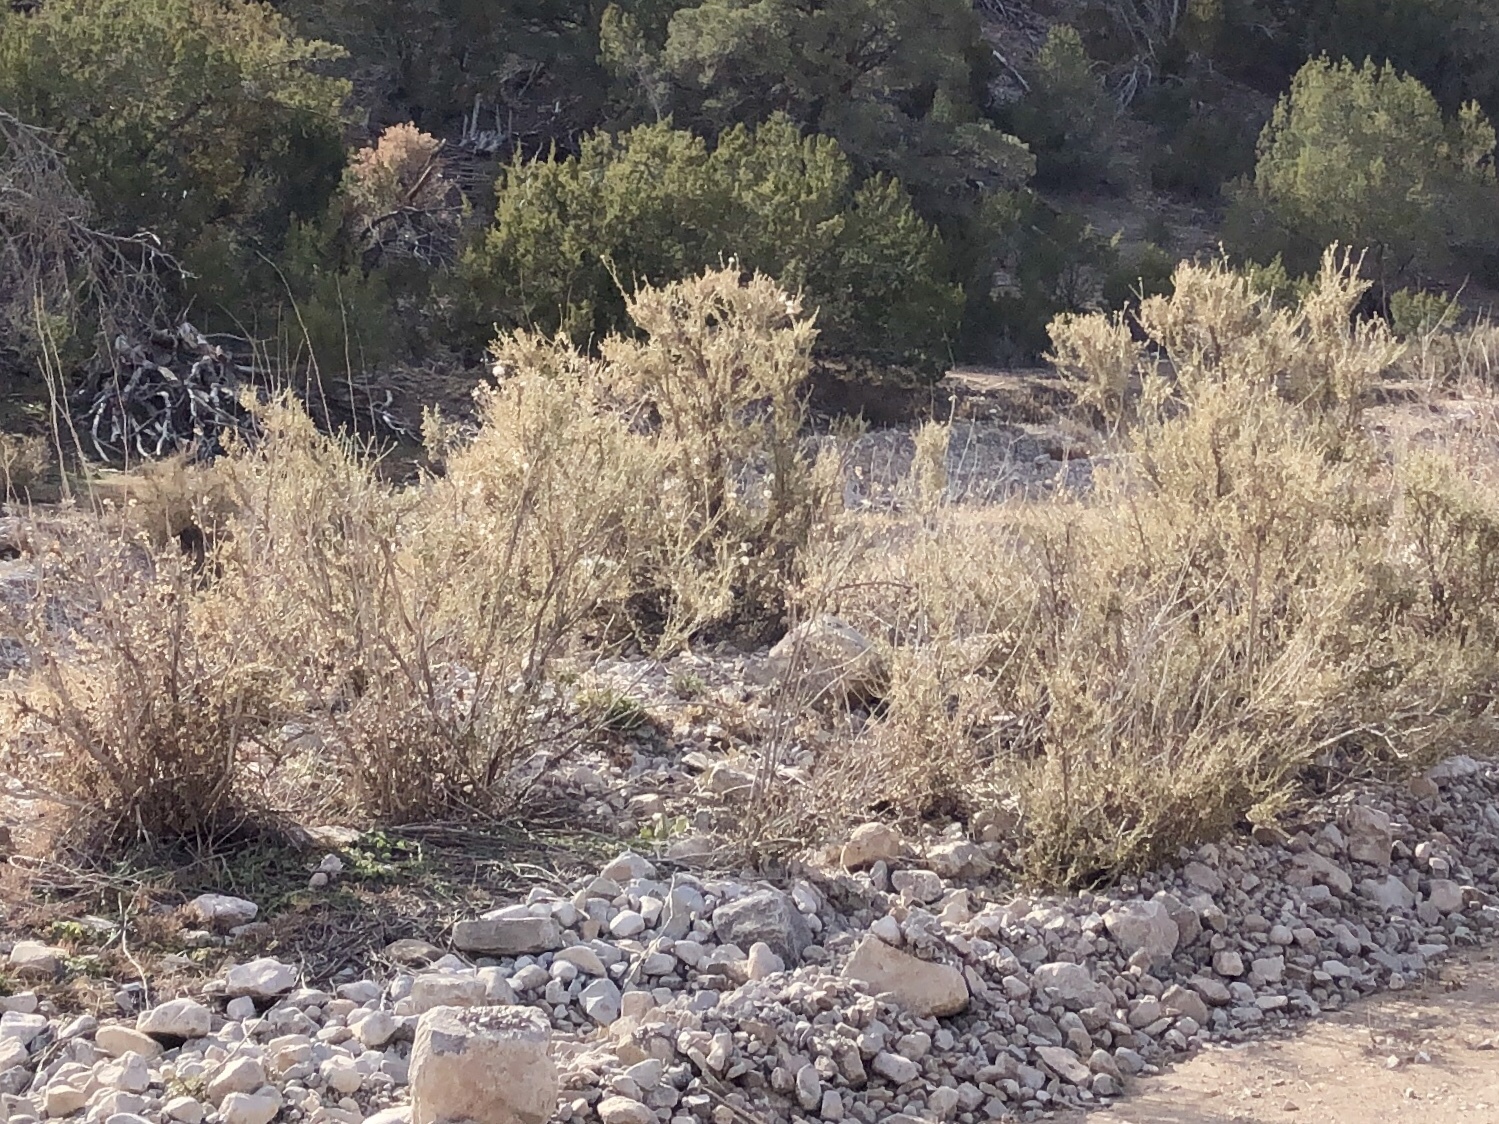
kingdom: Plantae
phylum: Tracheophyta
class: Magnoliopsida
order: Rosales
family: Rosaceae
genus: Fallugia
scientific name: Fallugia paradoxa
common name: Apache-plume
